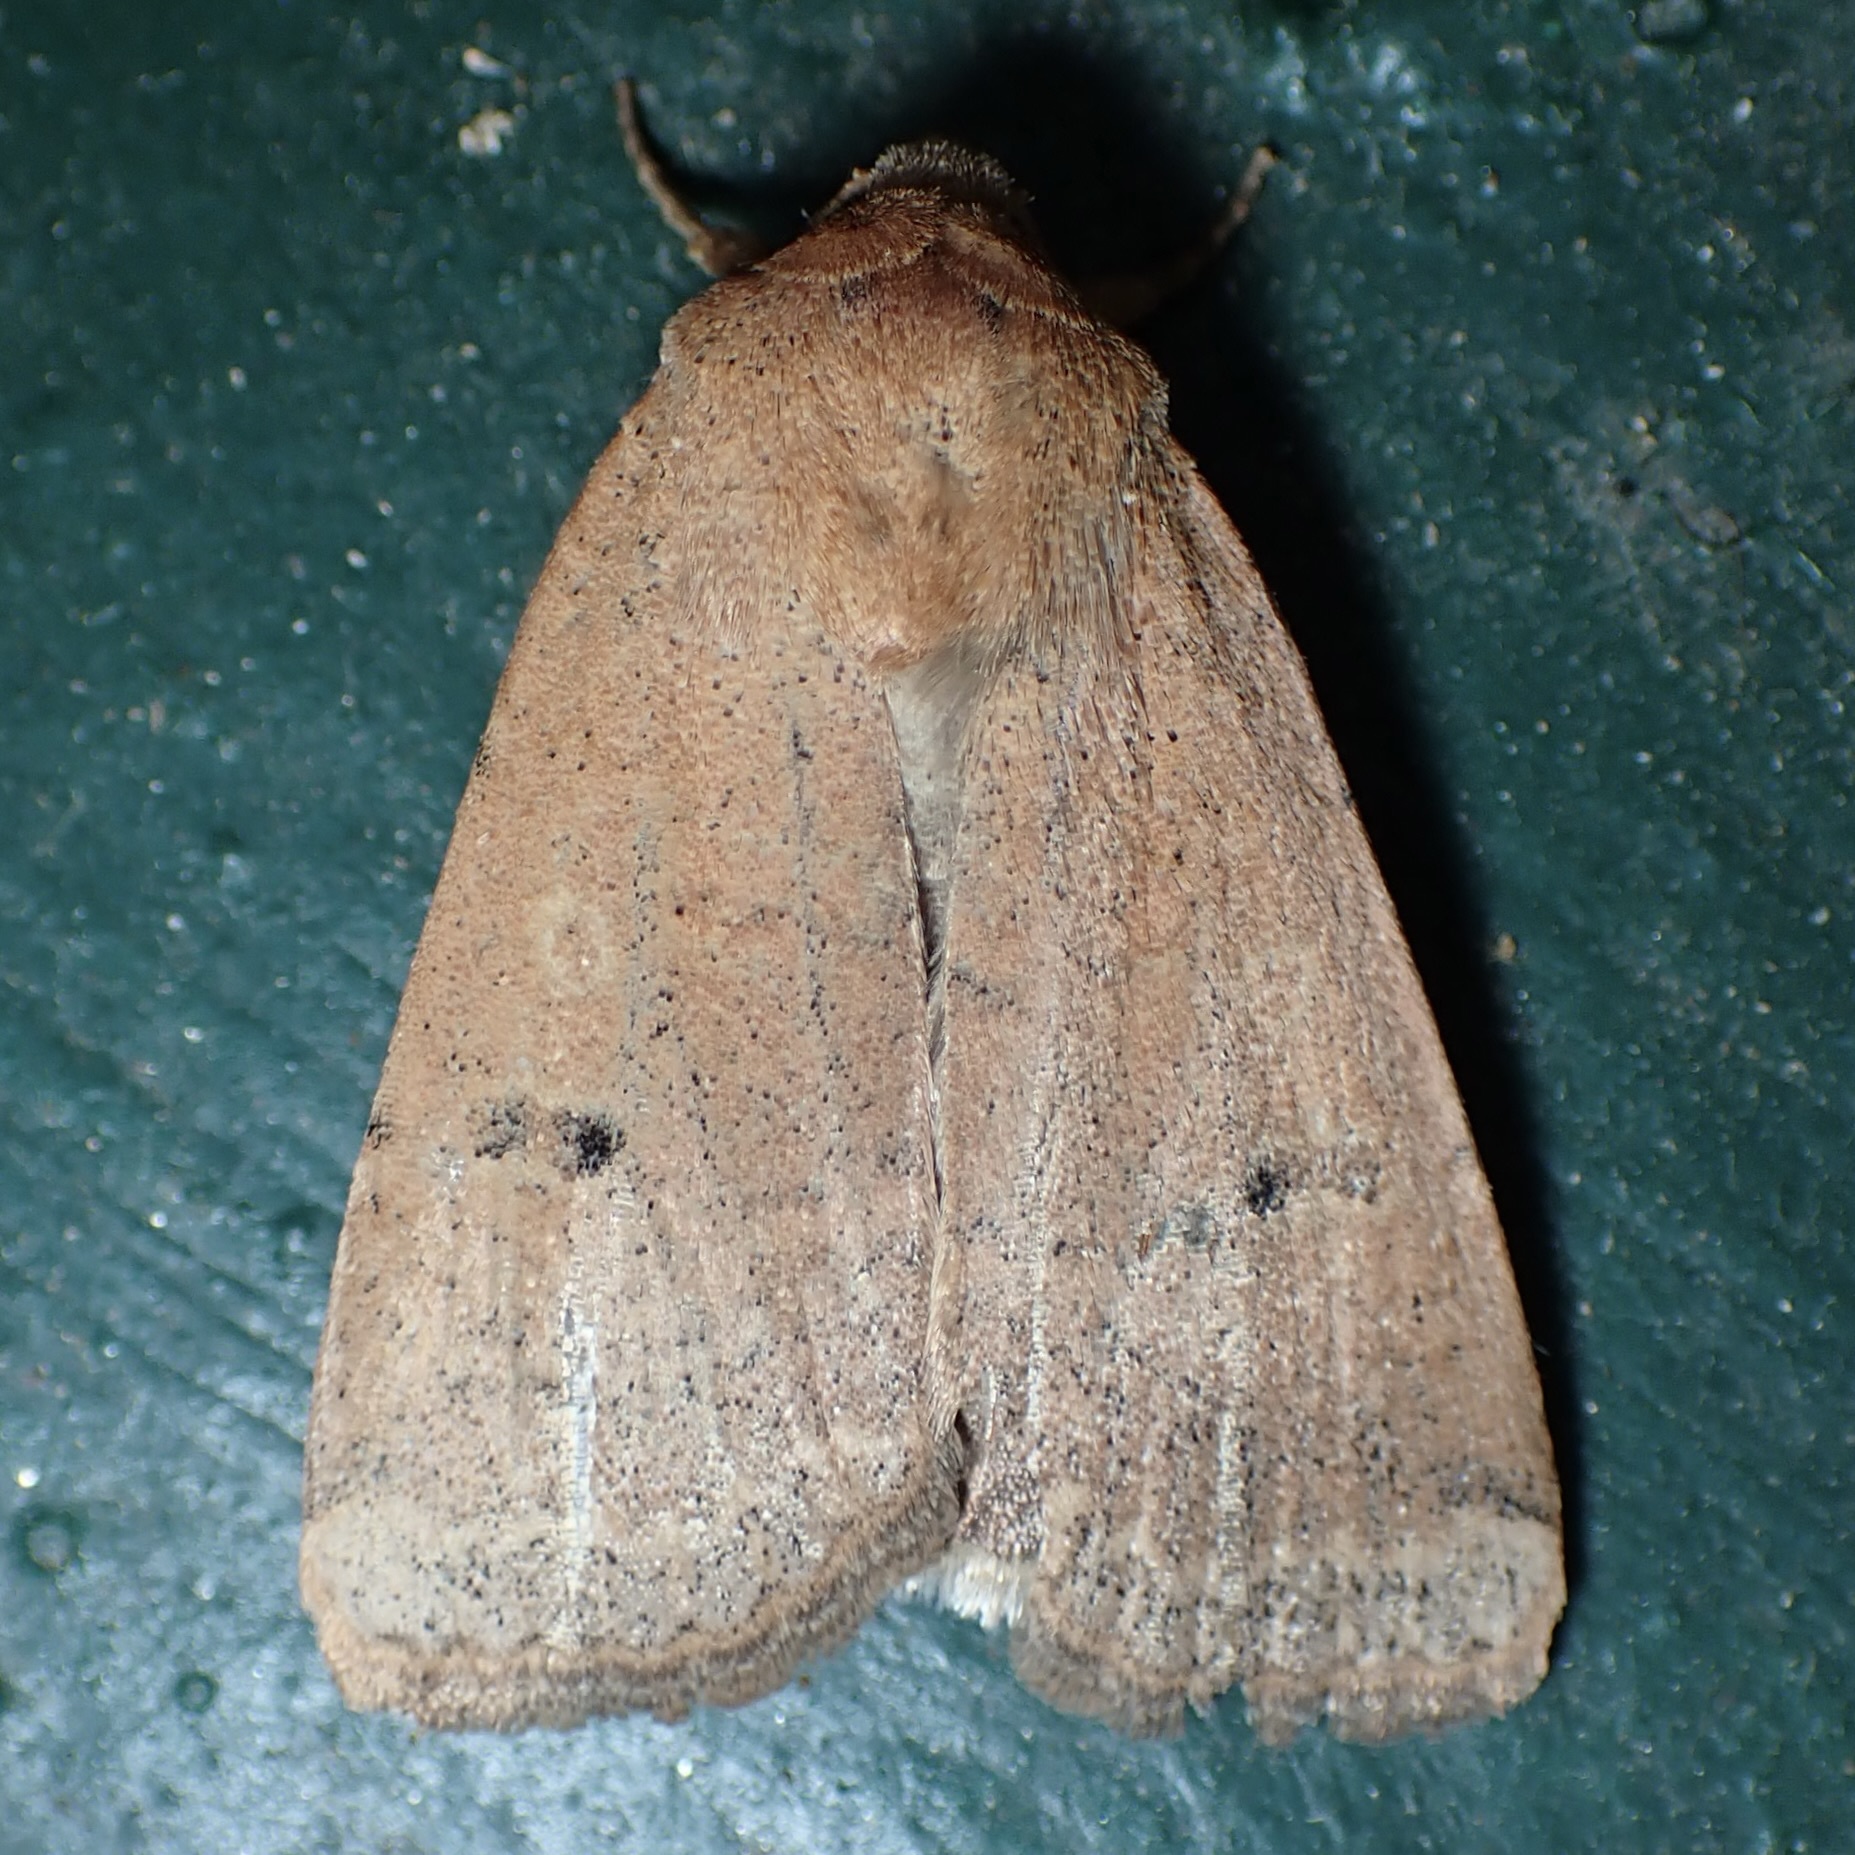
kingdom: Animalia
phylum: Arthropoda
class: Insecta
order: Lepidoptera
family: Noctuidae
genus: Abagrotis
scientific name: Abagrotis orbis
